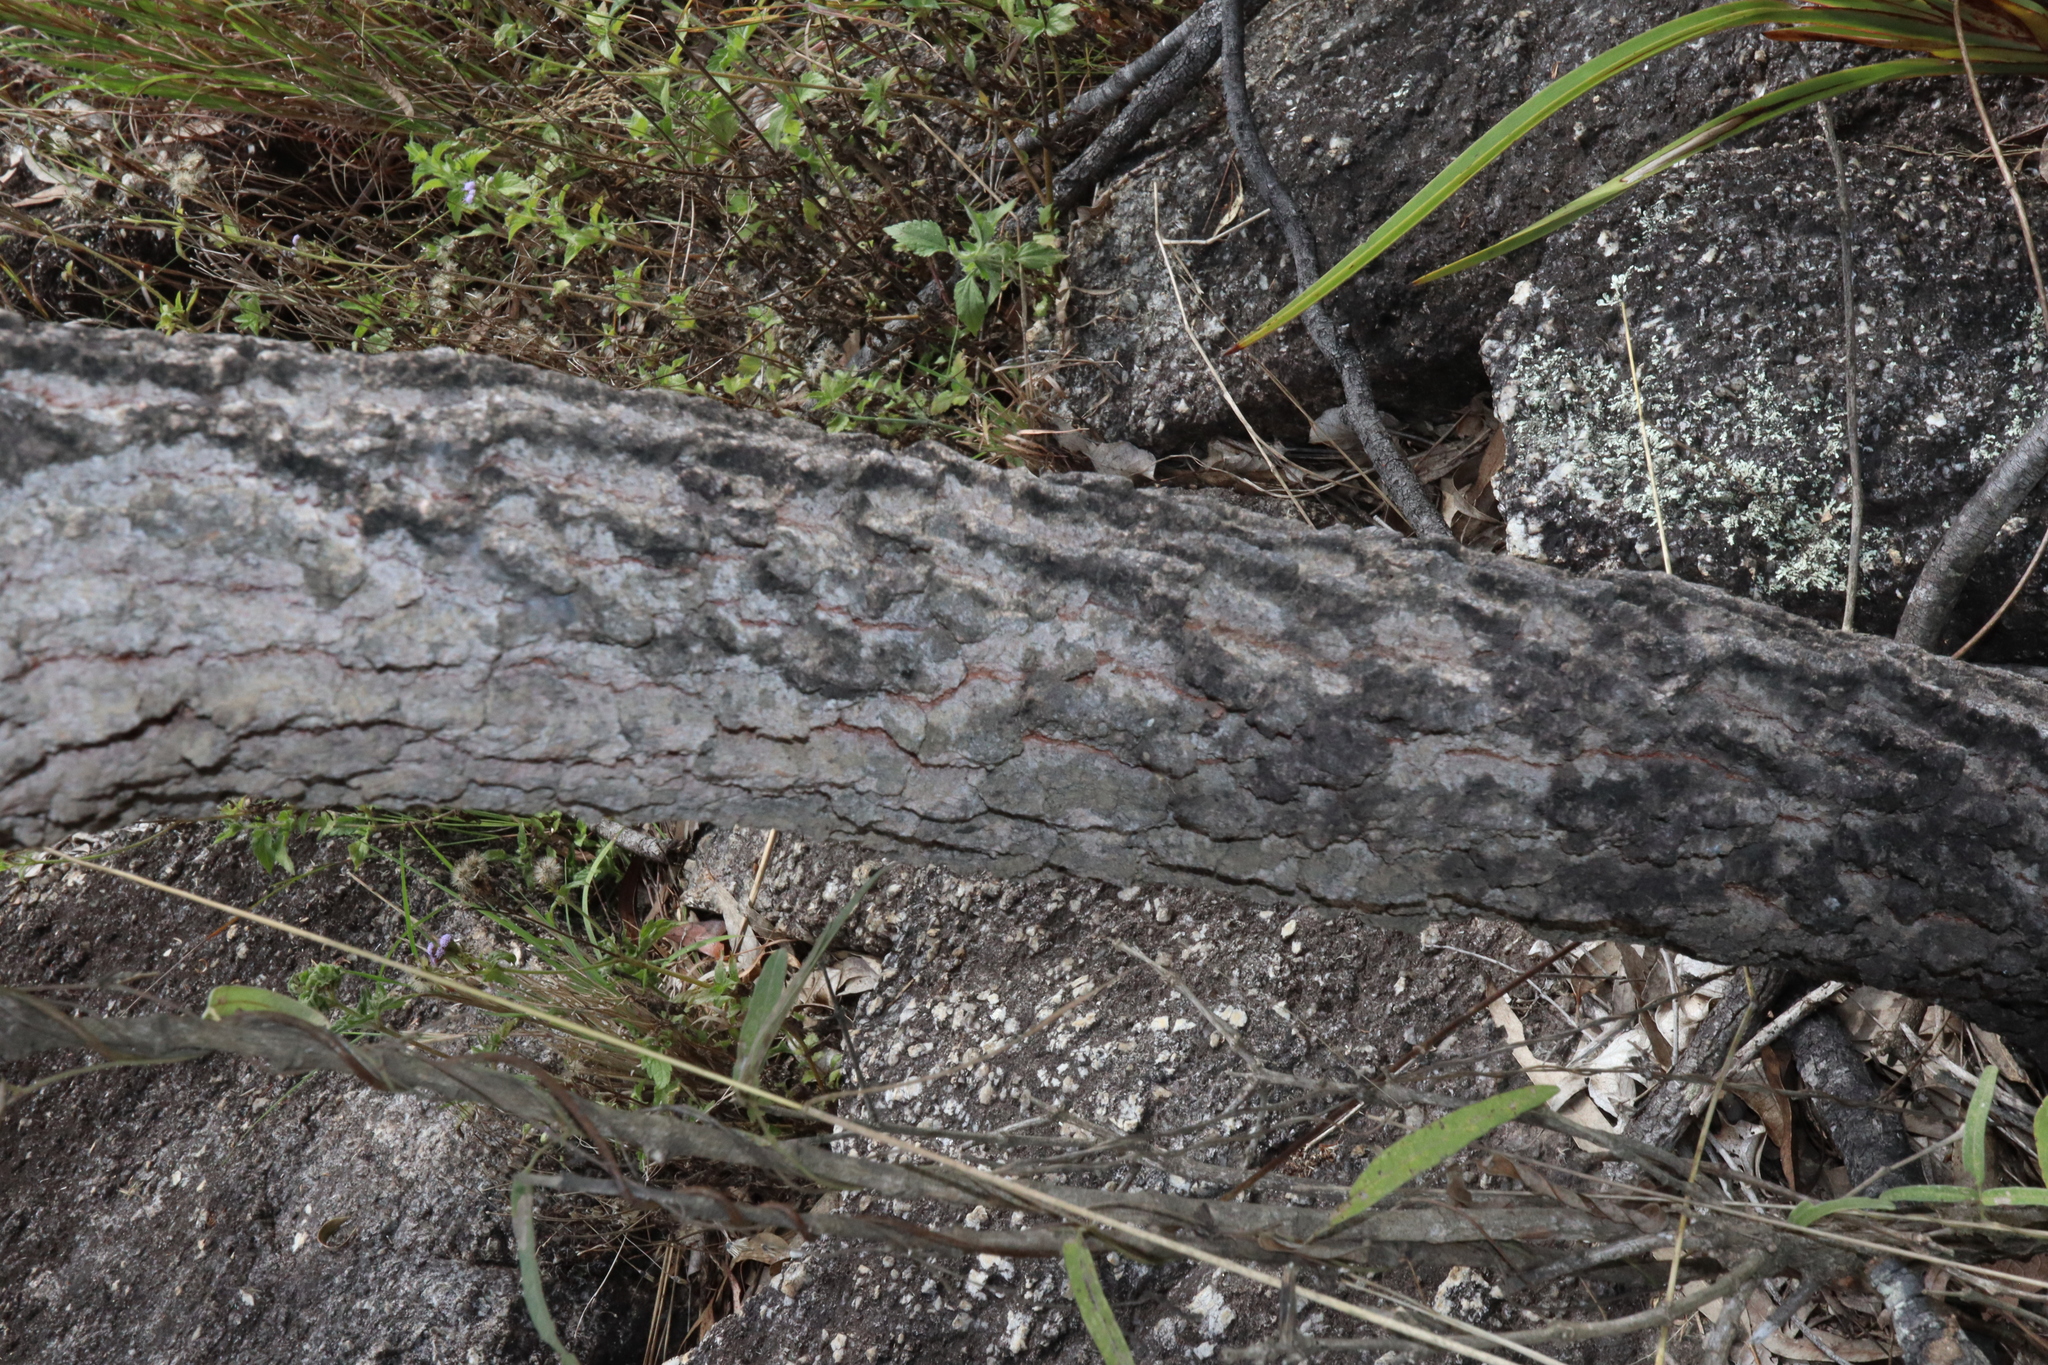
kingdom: Plantae
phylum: Tracheophyta
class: Magnoliopsida
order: Gentianales
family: Rubiaceae
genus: Coelospermum
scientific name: Coelospermum reticulatum
